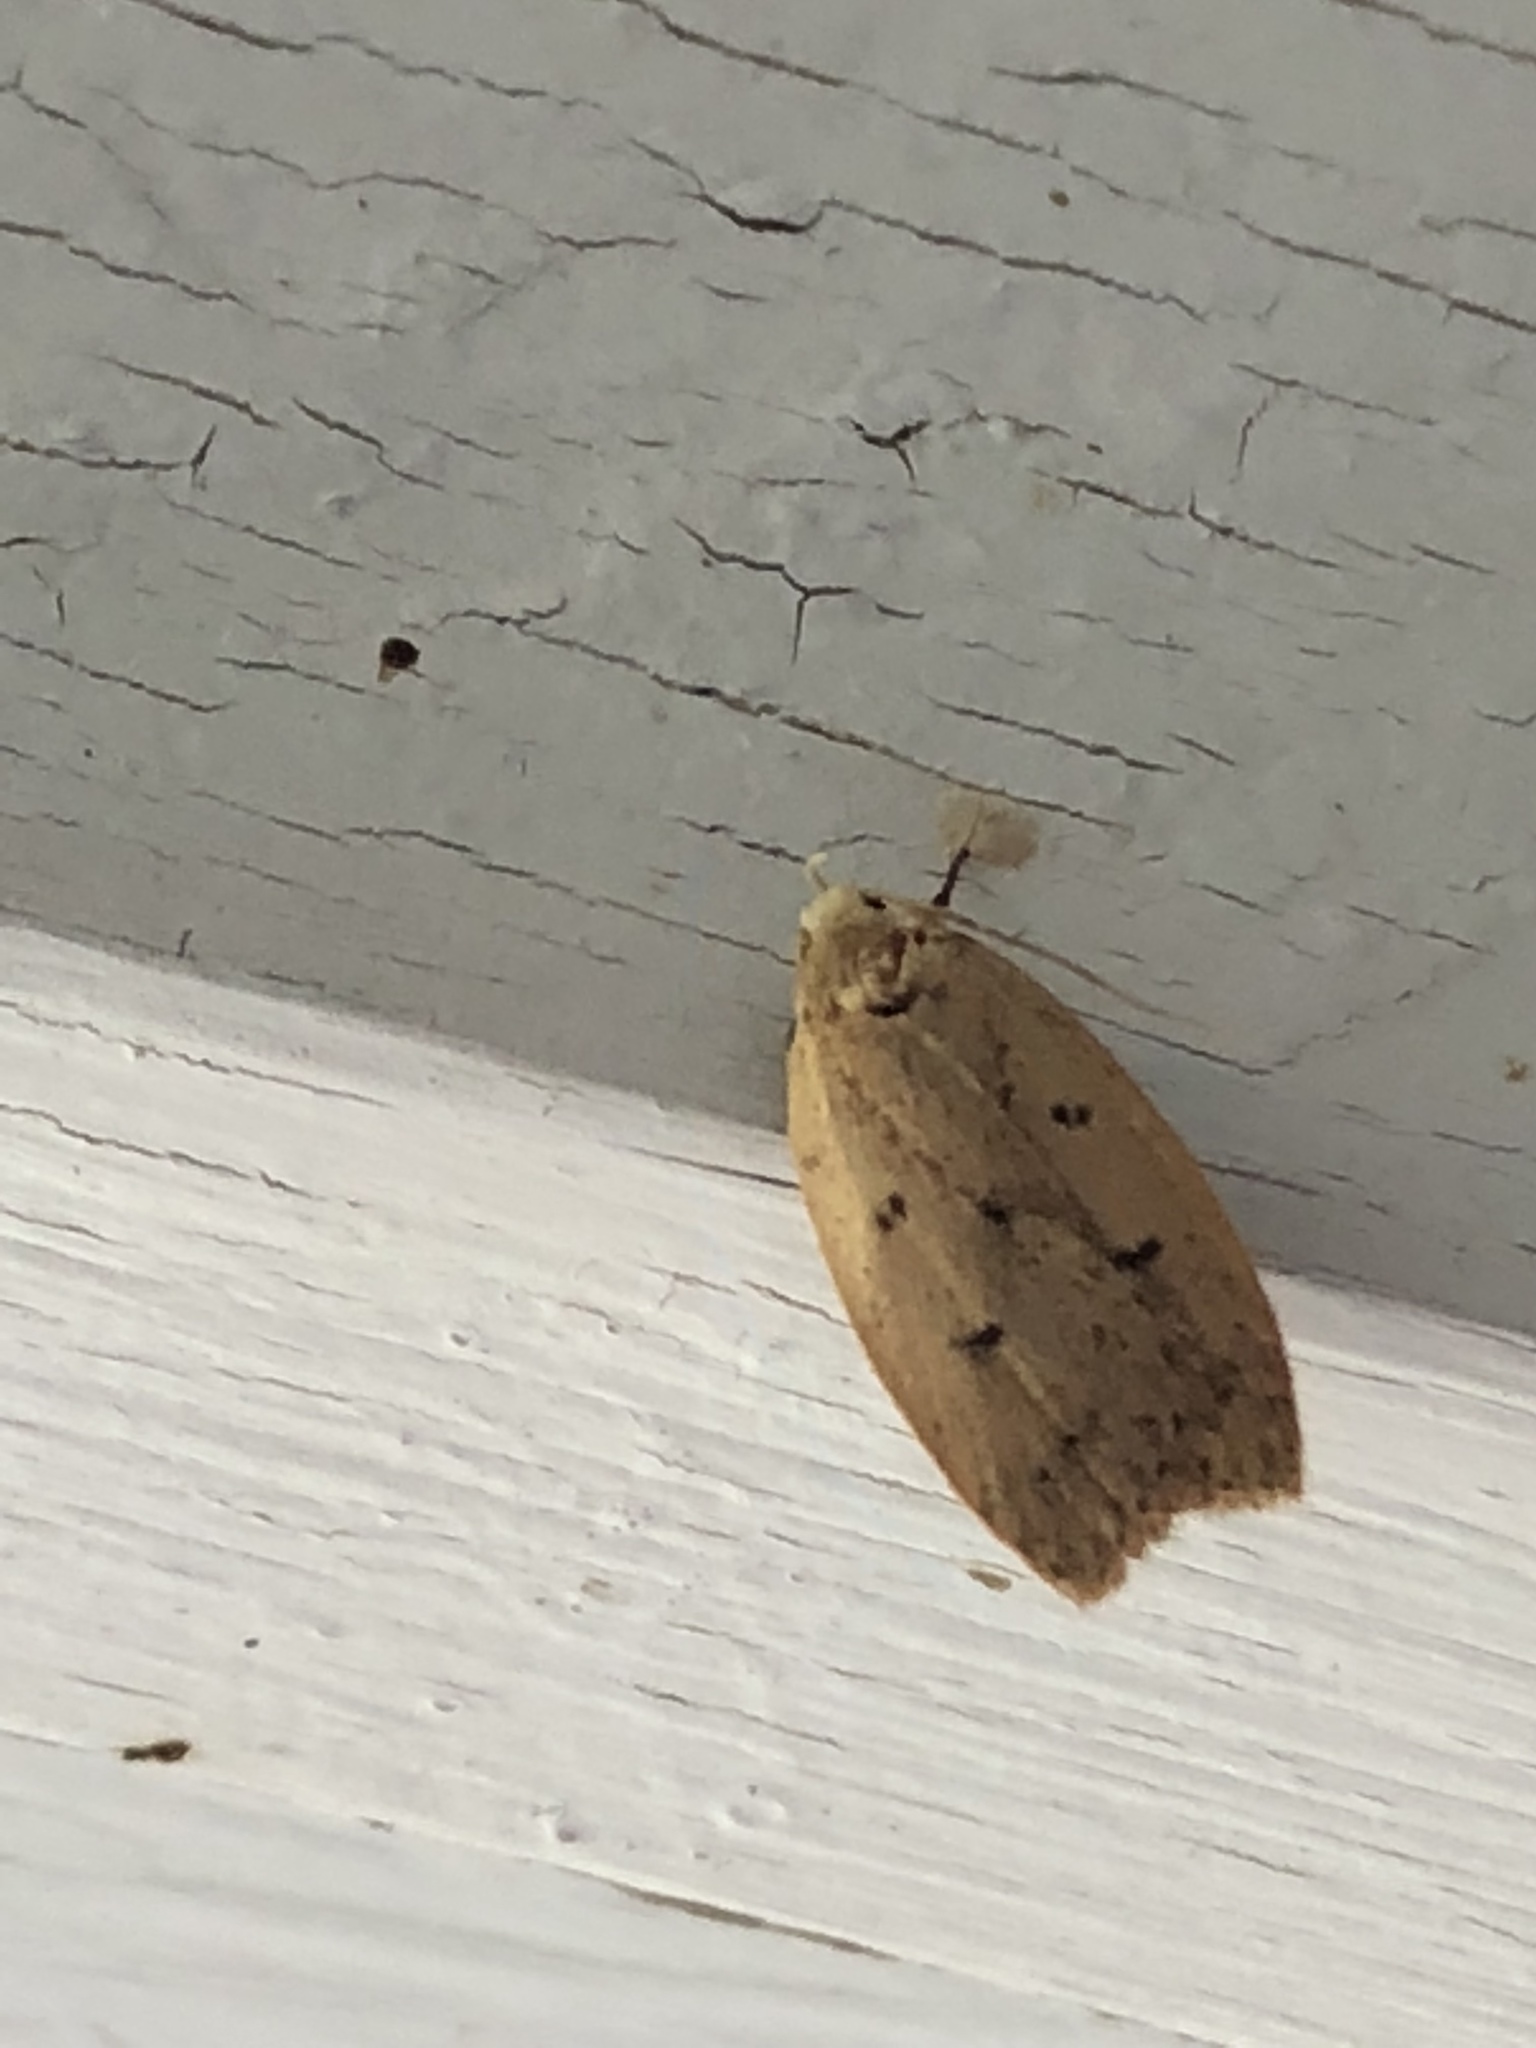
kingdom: Animalia
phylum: Arthropoda
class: Insecta
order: Lepidoptera
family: Peleopodidae
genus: Machimia
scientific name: Machimia tentoriferella
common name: Gold-striped leaftier moth
